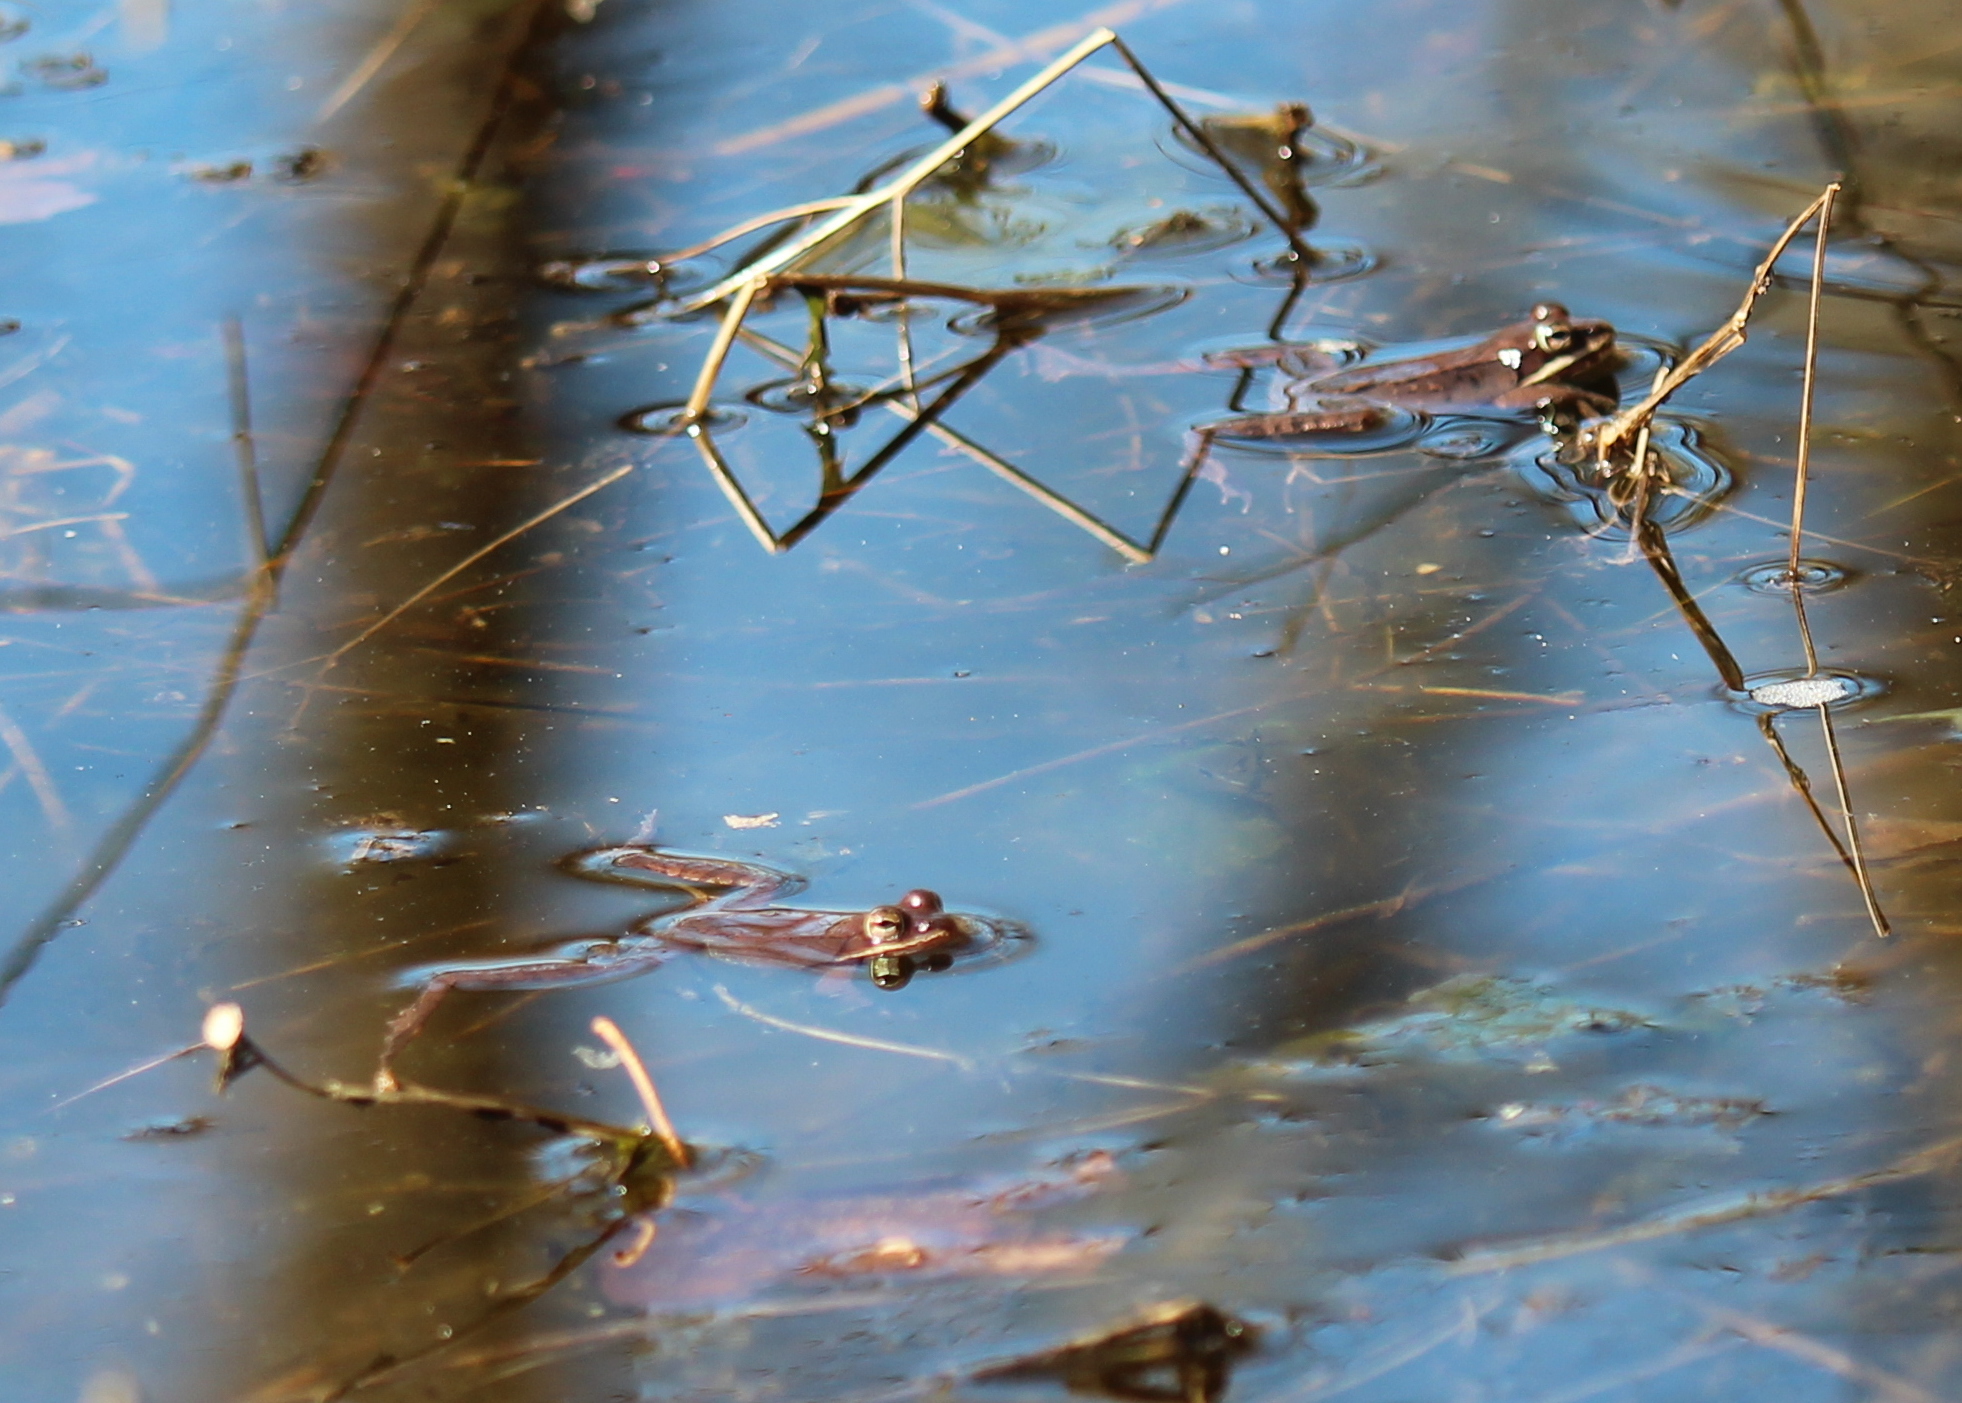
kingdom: Animalia
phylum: Chordata
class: Amphibia
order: Anura
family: Ranidae
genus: Lithobates
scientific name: Lithobates sylvaticus
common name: Wood frog
